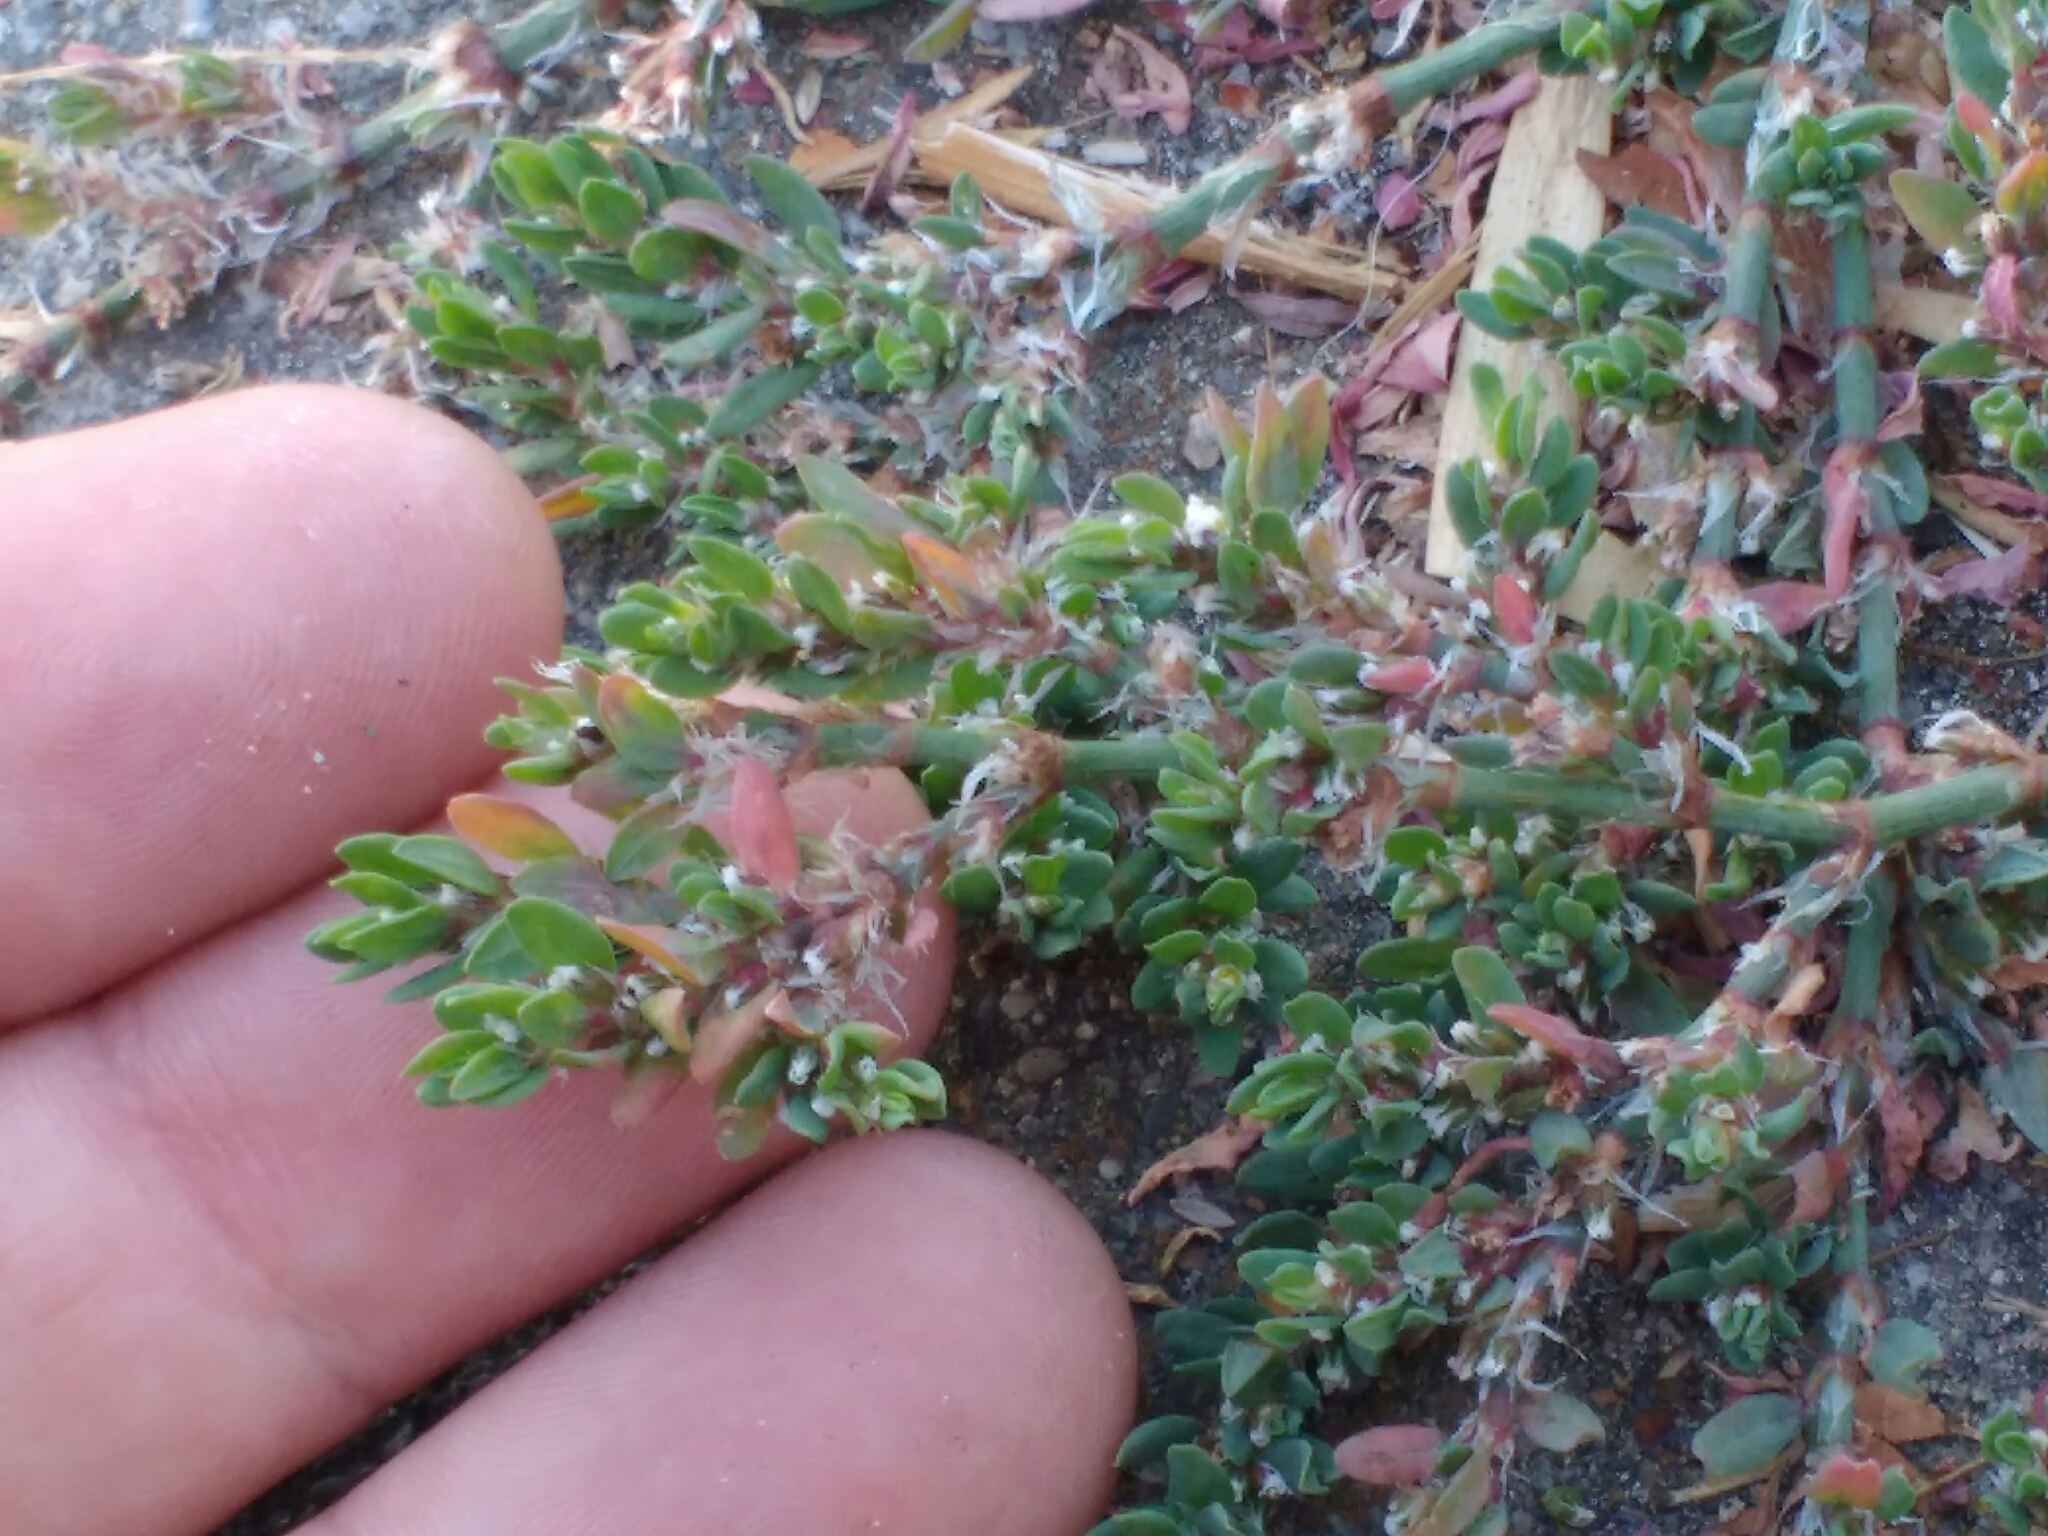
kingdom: Plantae
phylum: Tracheophyta
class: Magnoliopsida
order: Caryophyllales
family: Polygonaceae
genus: Polygonum
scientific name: Polygonum aviculare
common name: Prostrate knotweed
